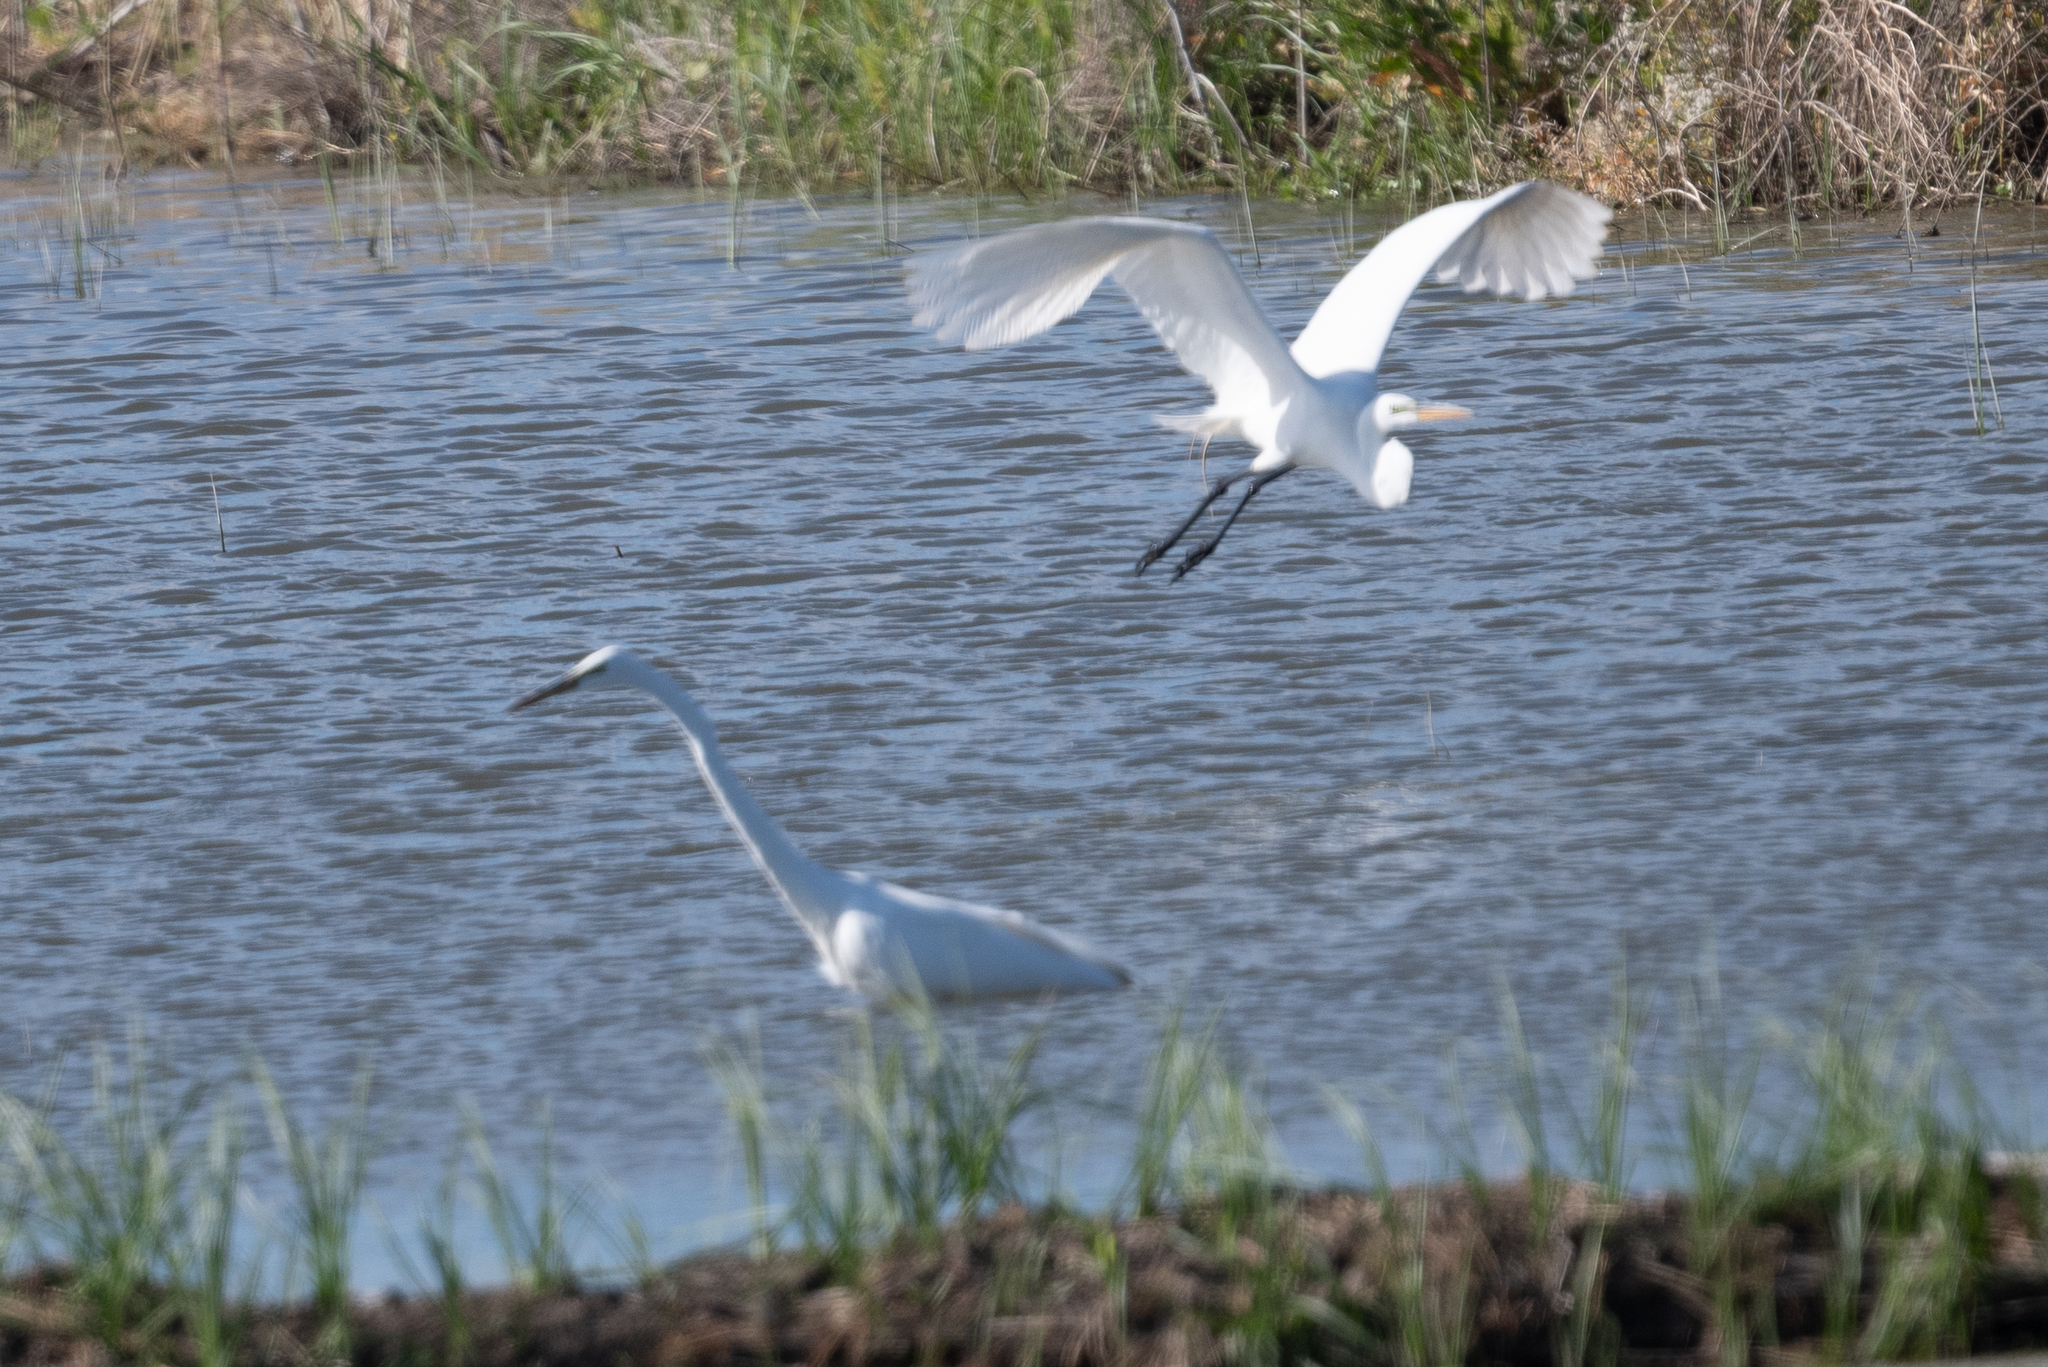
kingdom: Animalia
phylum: Chordata
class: Aves
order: Pelecaniformes
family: Ardeidae
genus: Ardea
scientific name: Ardea alba
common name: Great egret
